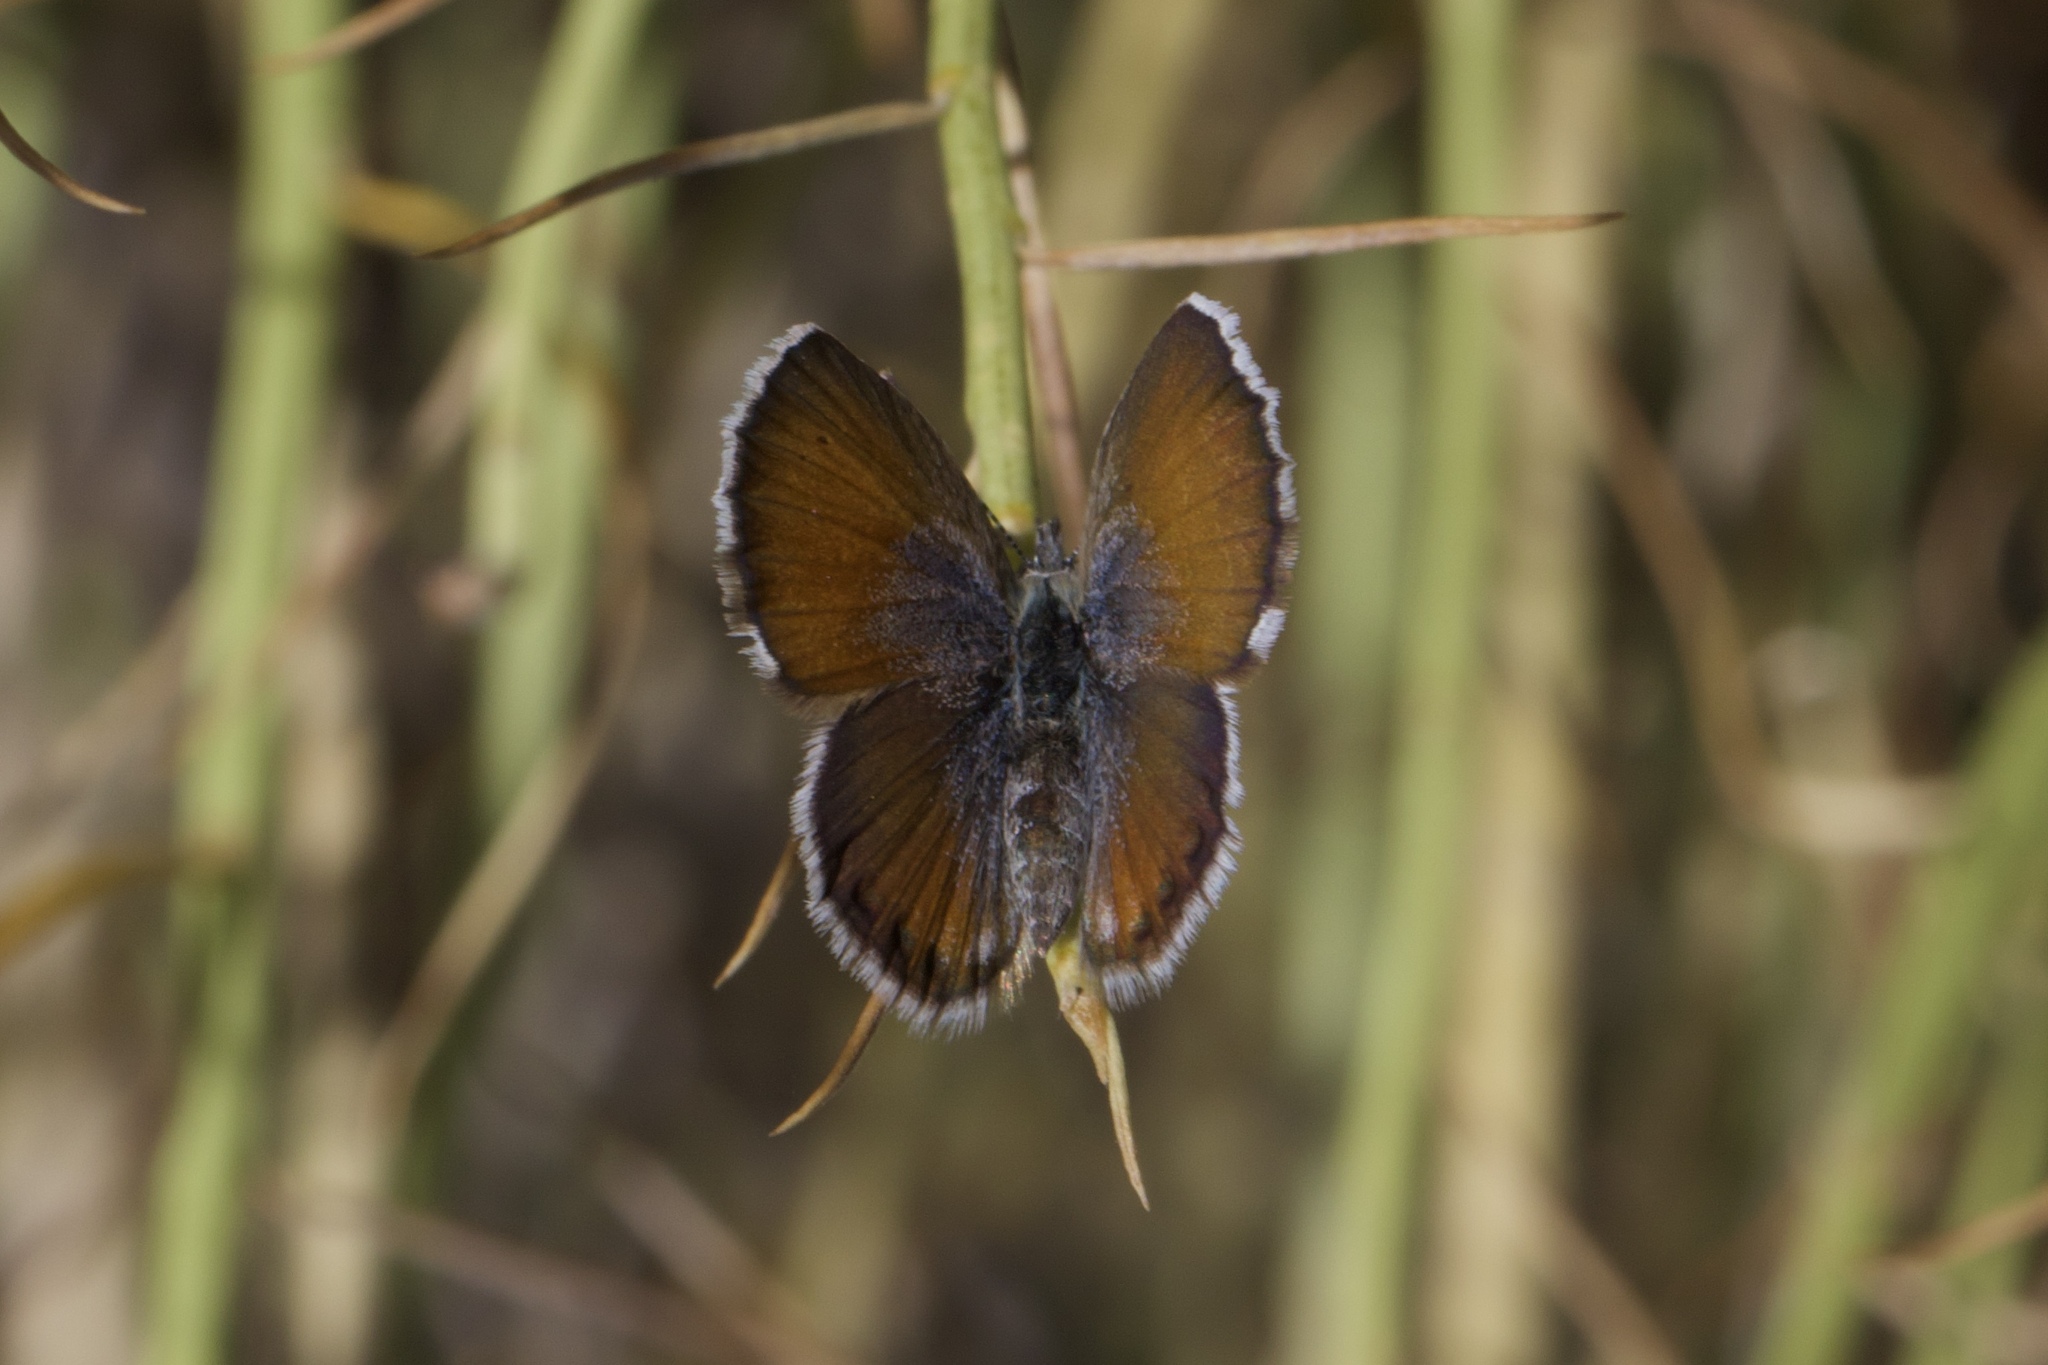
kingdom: Animalia
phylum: Arthropoda
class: Insecta
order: Lepidoptera
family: Lycaenidae
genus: Brephidium
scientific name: Brephidium exilis
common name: Pygmy blue
